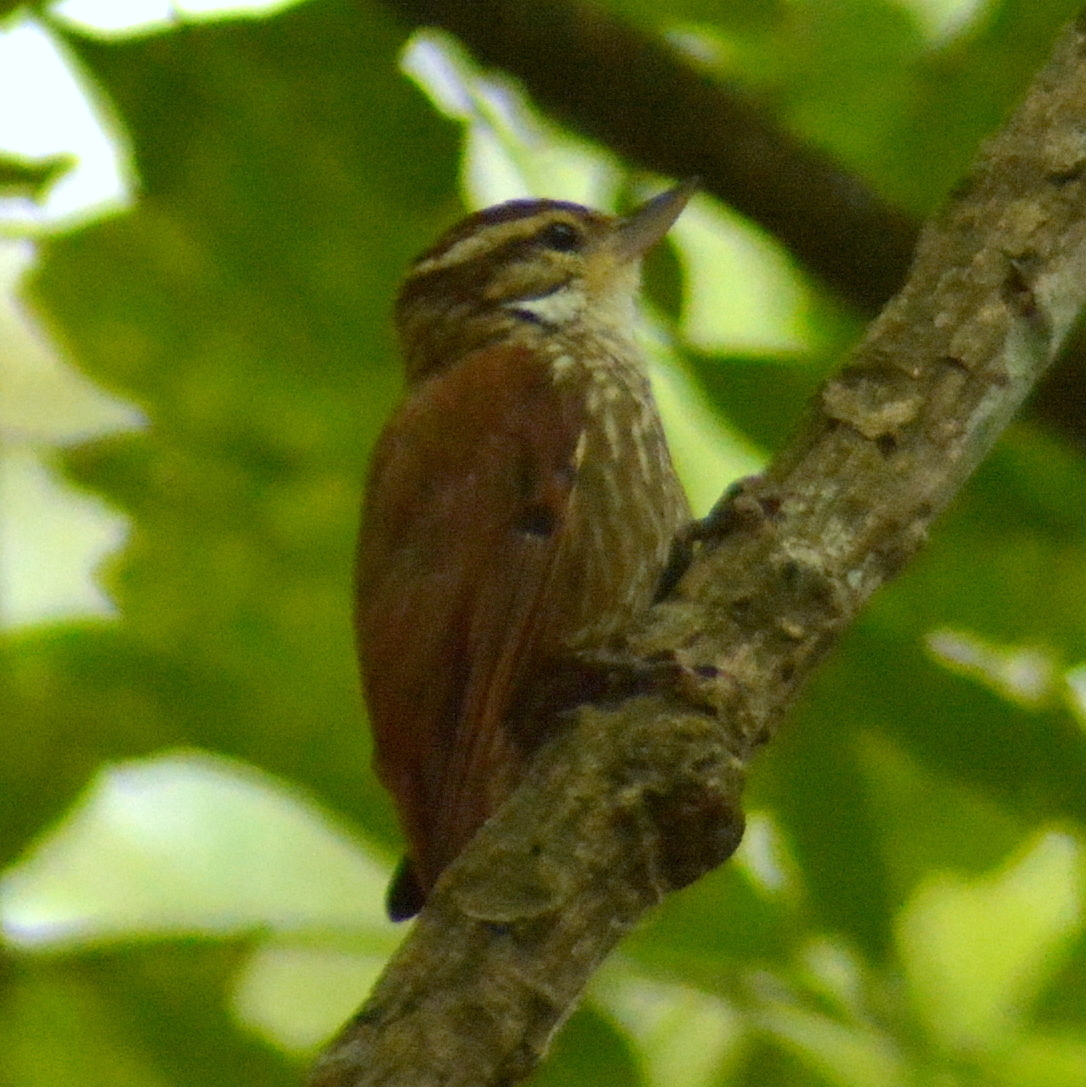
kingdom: Animalia
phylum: Chordata
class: Aves
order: Passeriformes
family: Furnariidae
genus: Xenops
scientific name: Xenops rutilans
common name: Streaked xenops
